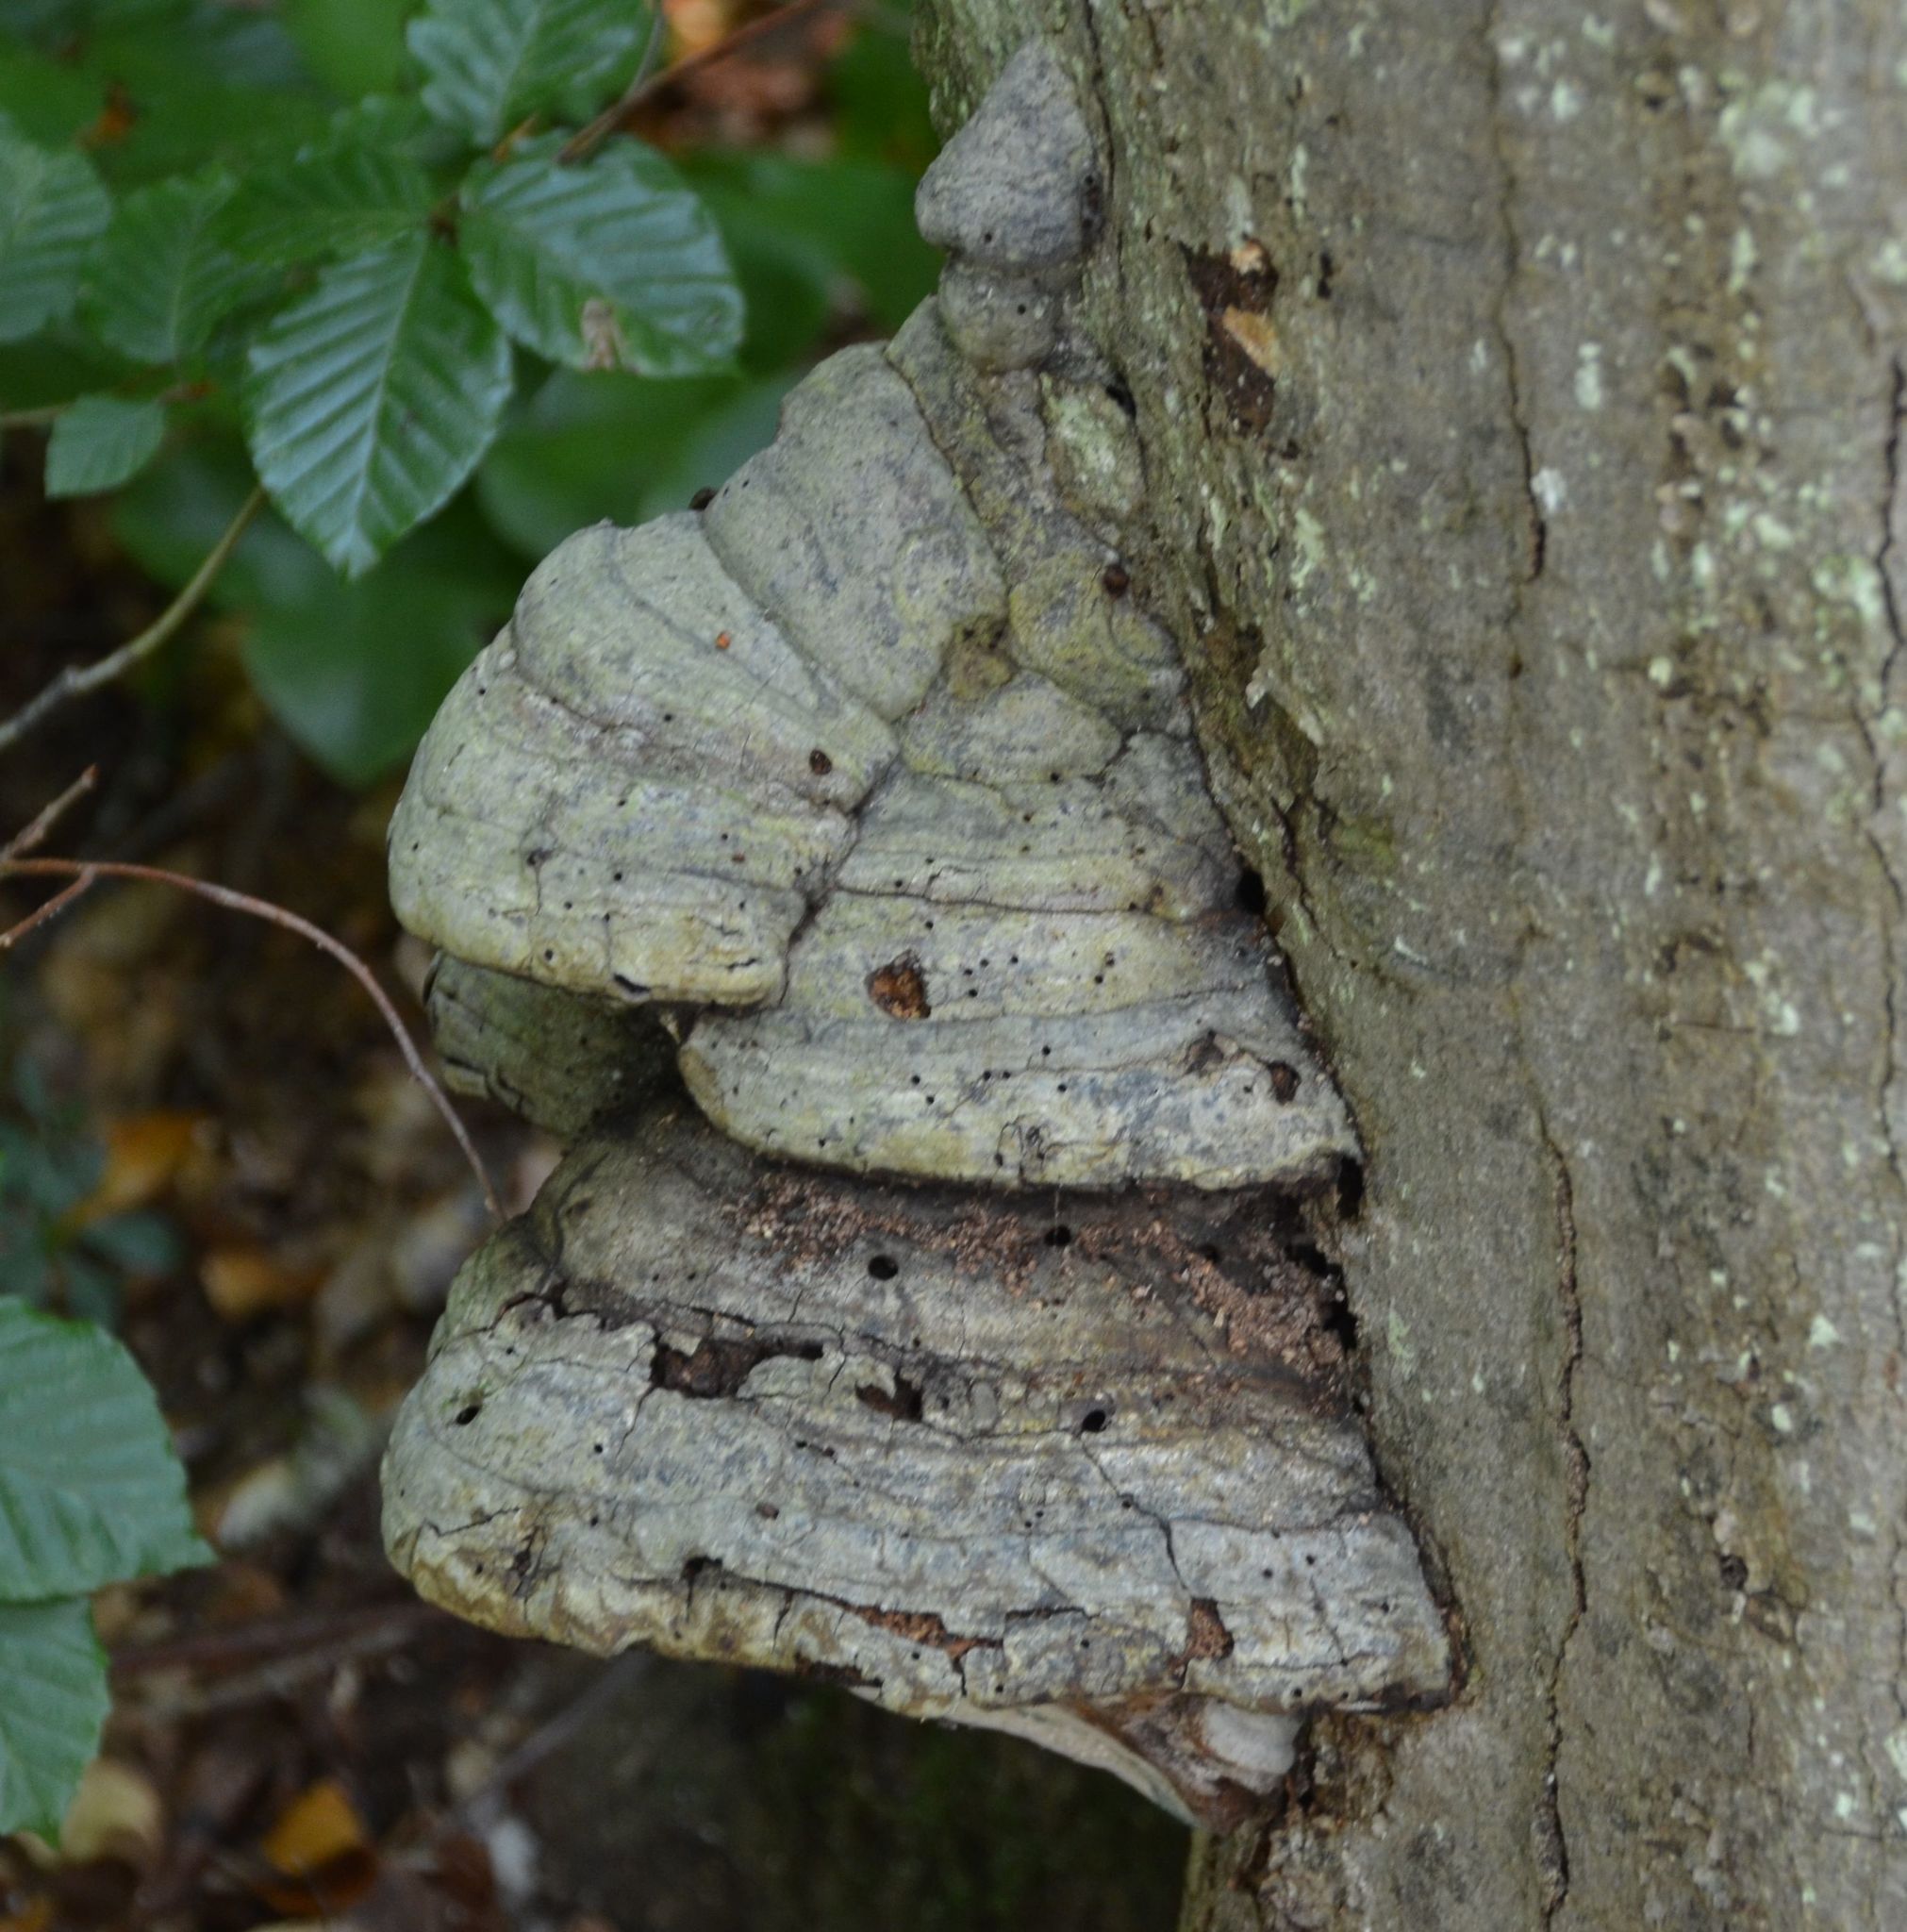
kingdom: Fungi
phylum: Basidiomycota
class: Agaricomycetes
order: Polyporales
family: Polyporaceae
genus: Fomes
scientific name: Fomes fomentarius
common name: Hoof fungus
